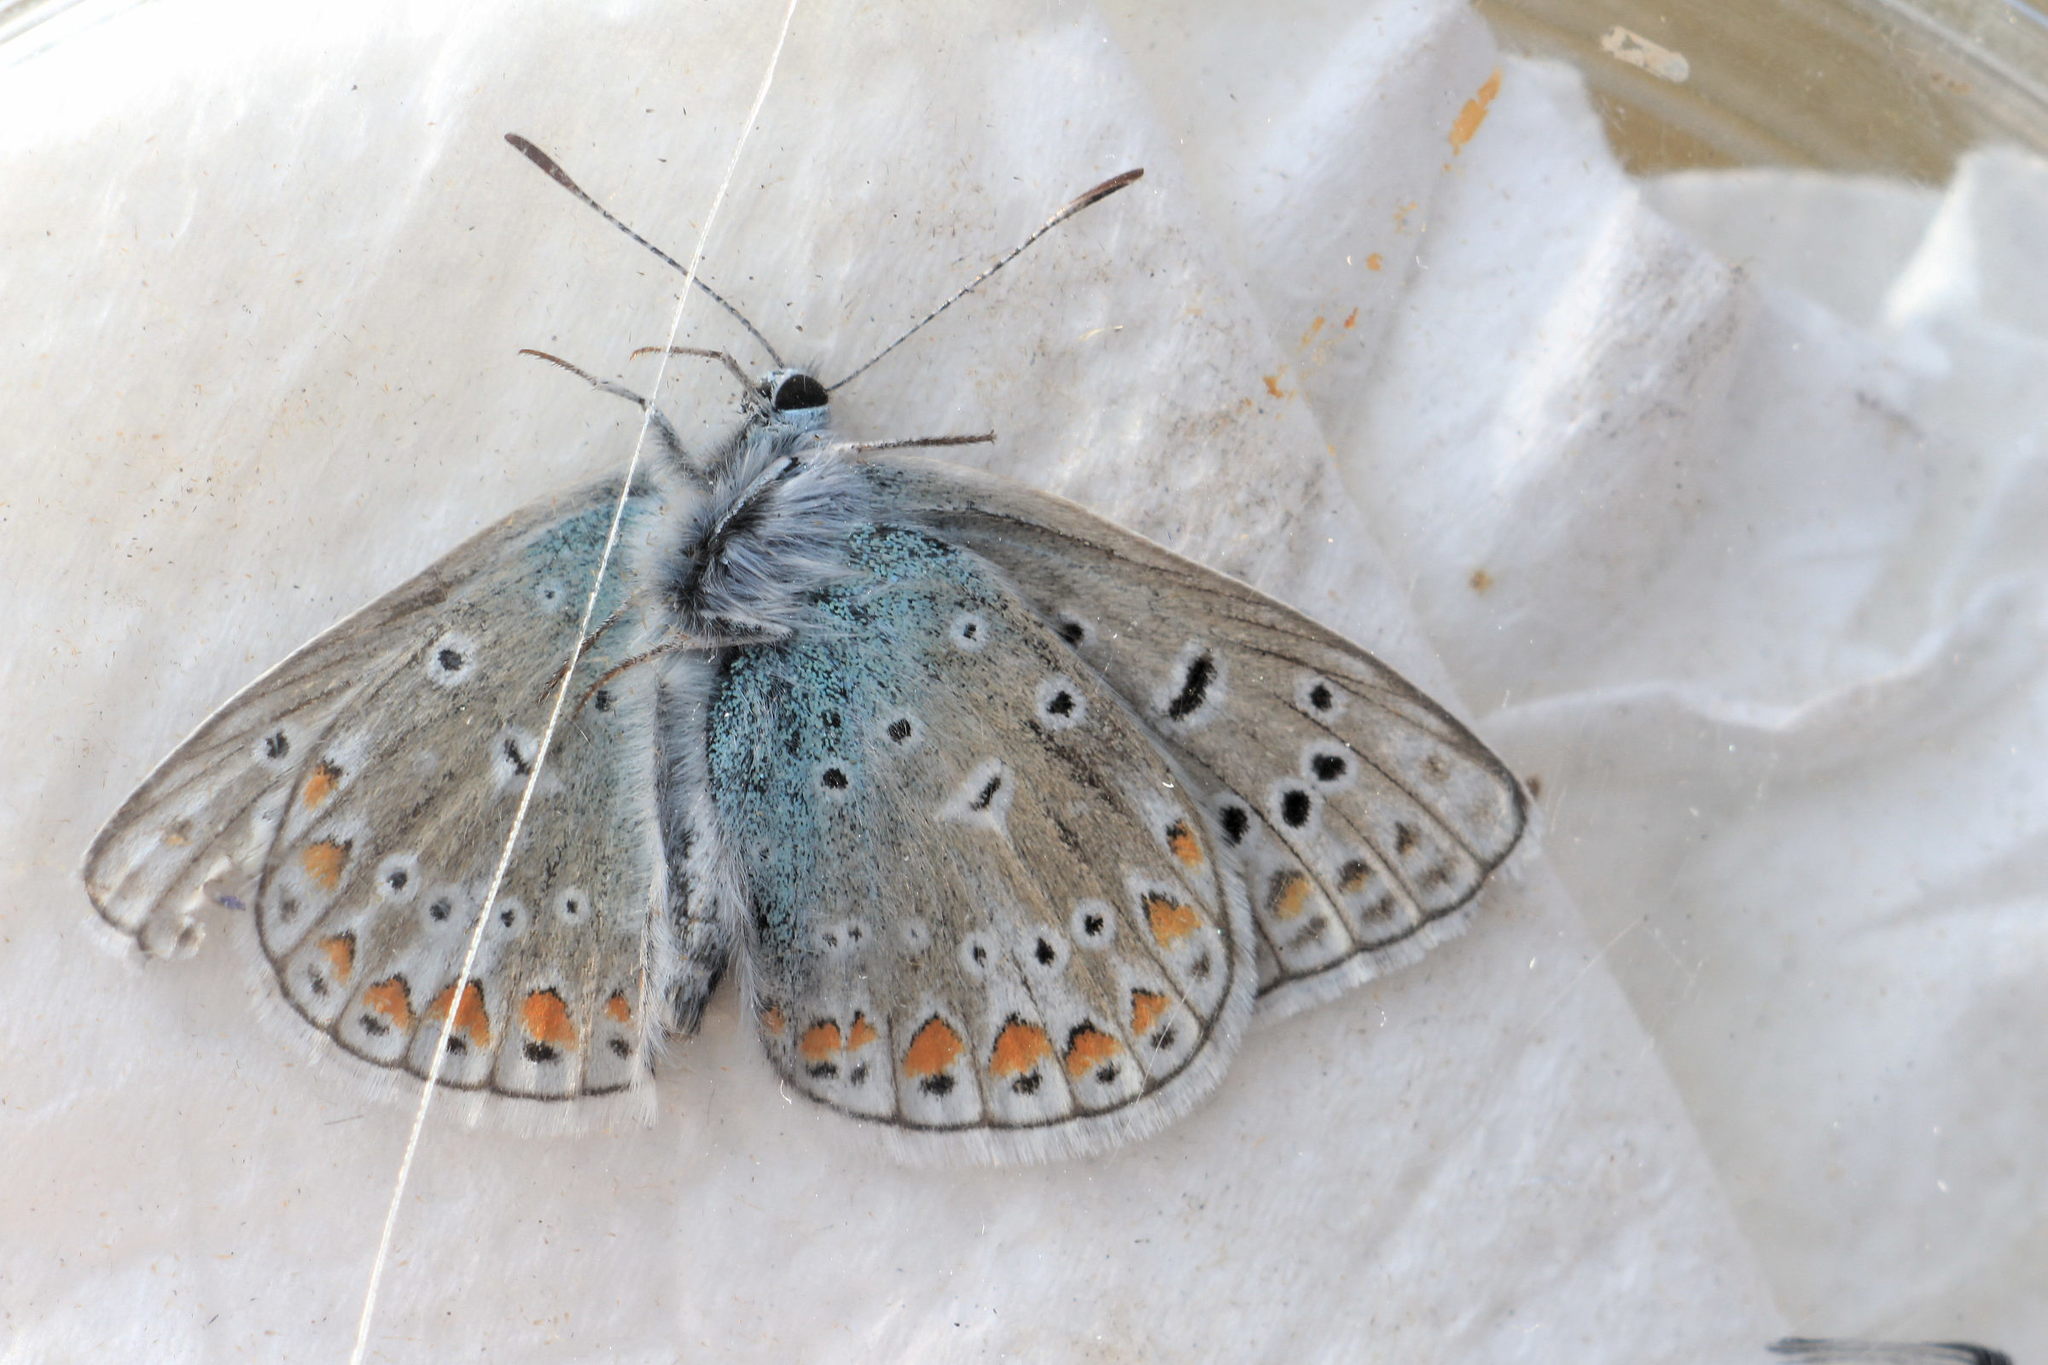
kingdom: Animalia
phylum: Arthropoda
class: Insecta
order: Lepidoptera
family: Lycaenidae
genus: Polyommatus
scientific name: Polyommatus icarus
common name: Common blue
